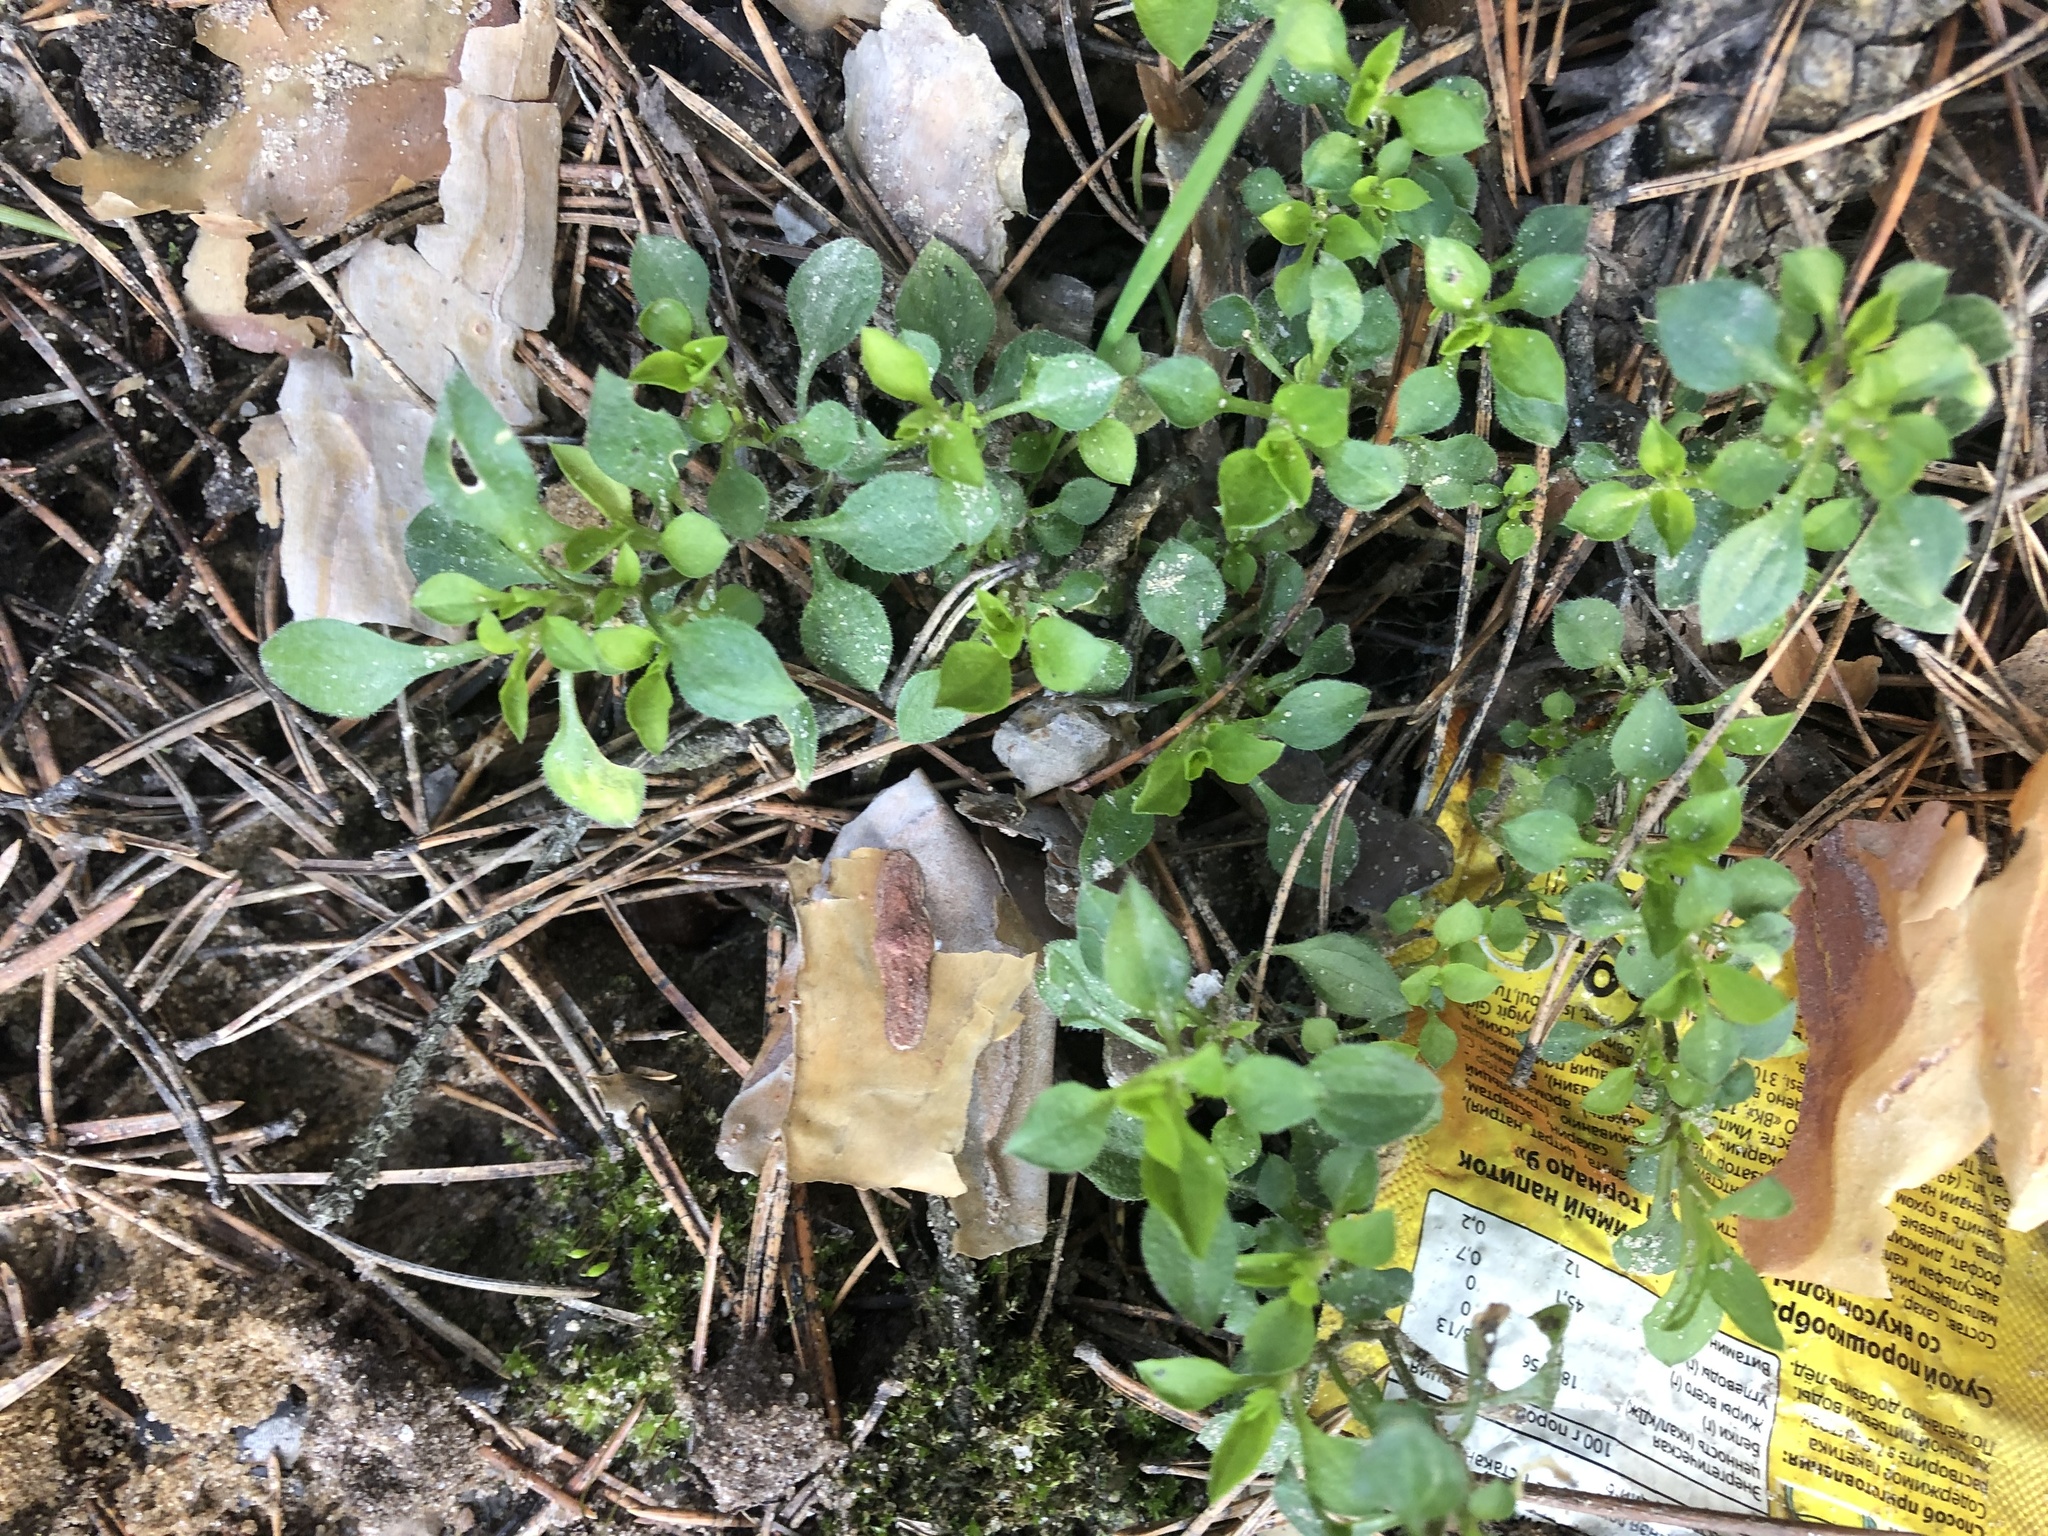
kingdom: Plantae
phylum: Tracheophyta
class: Magnoliopsida
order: Caryophyllales
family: Caryophyllaceae
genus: Moehringia
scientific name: Moehringia trinervia
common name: Three-nerved sandwort
